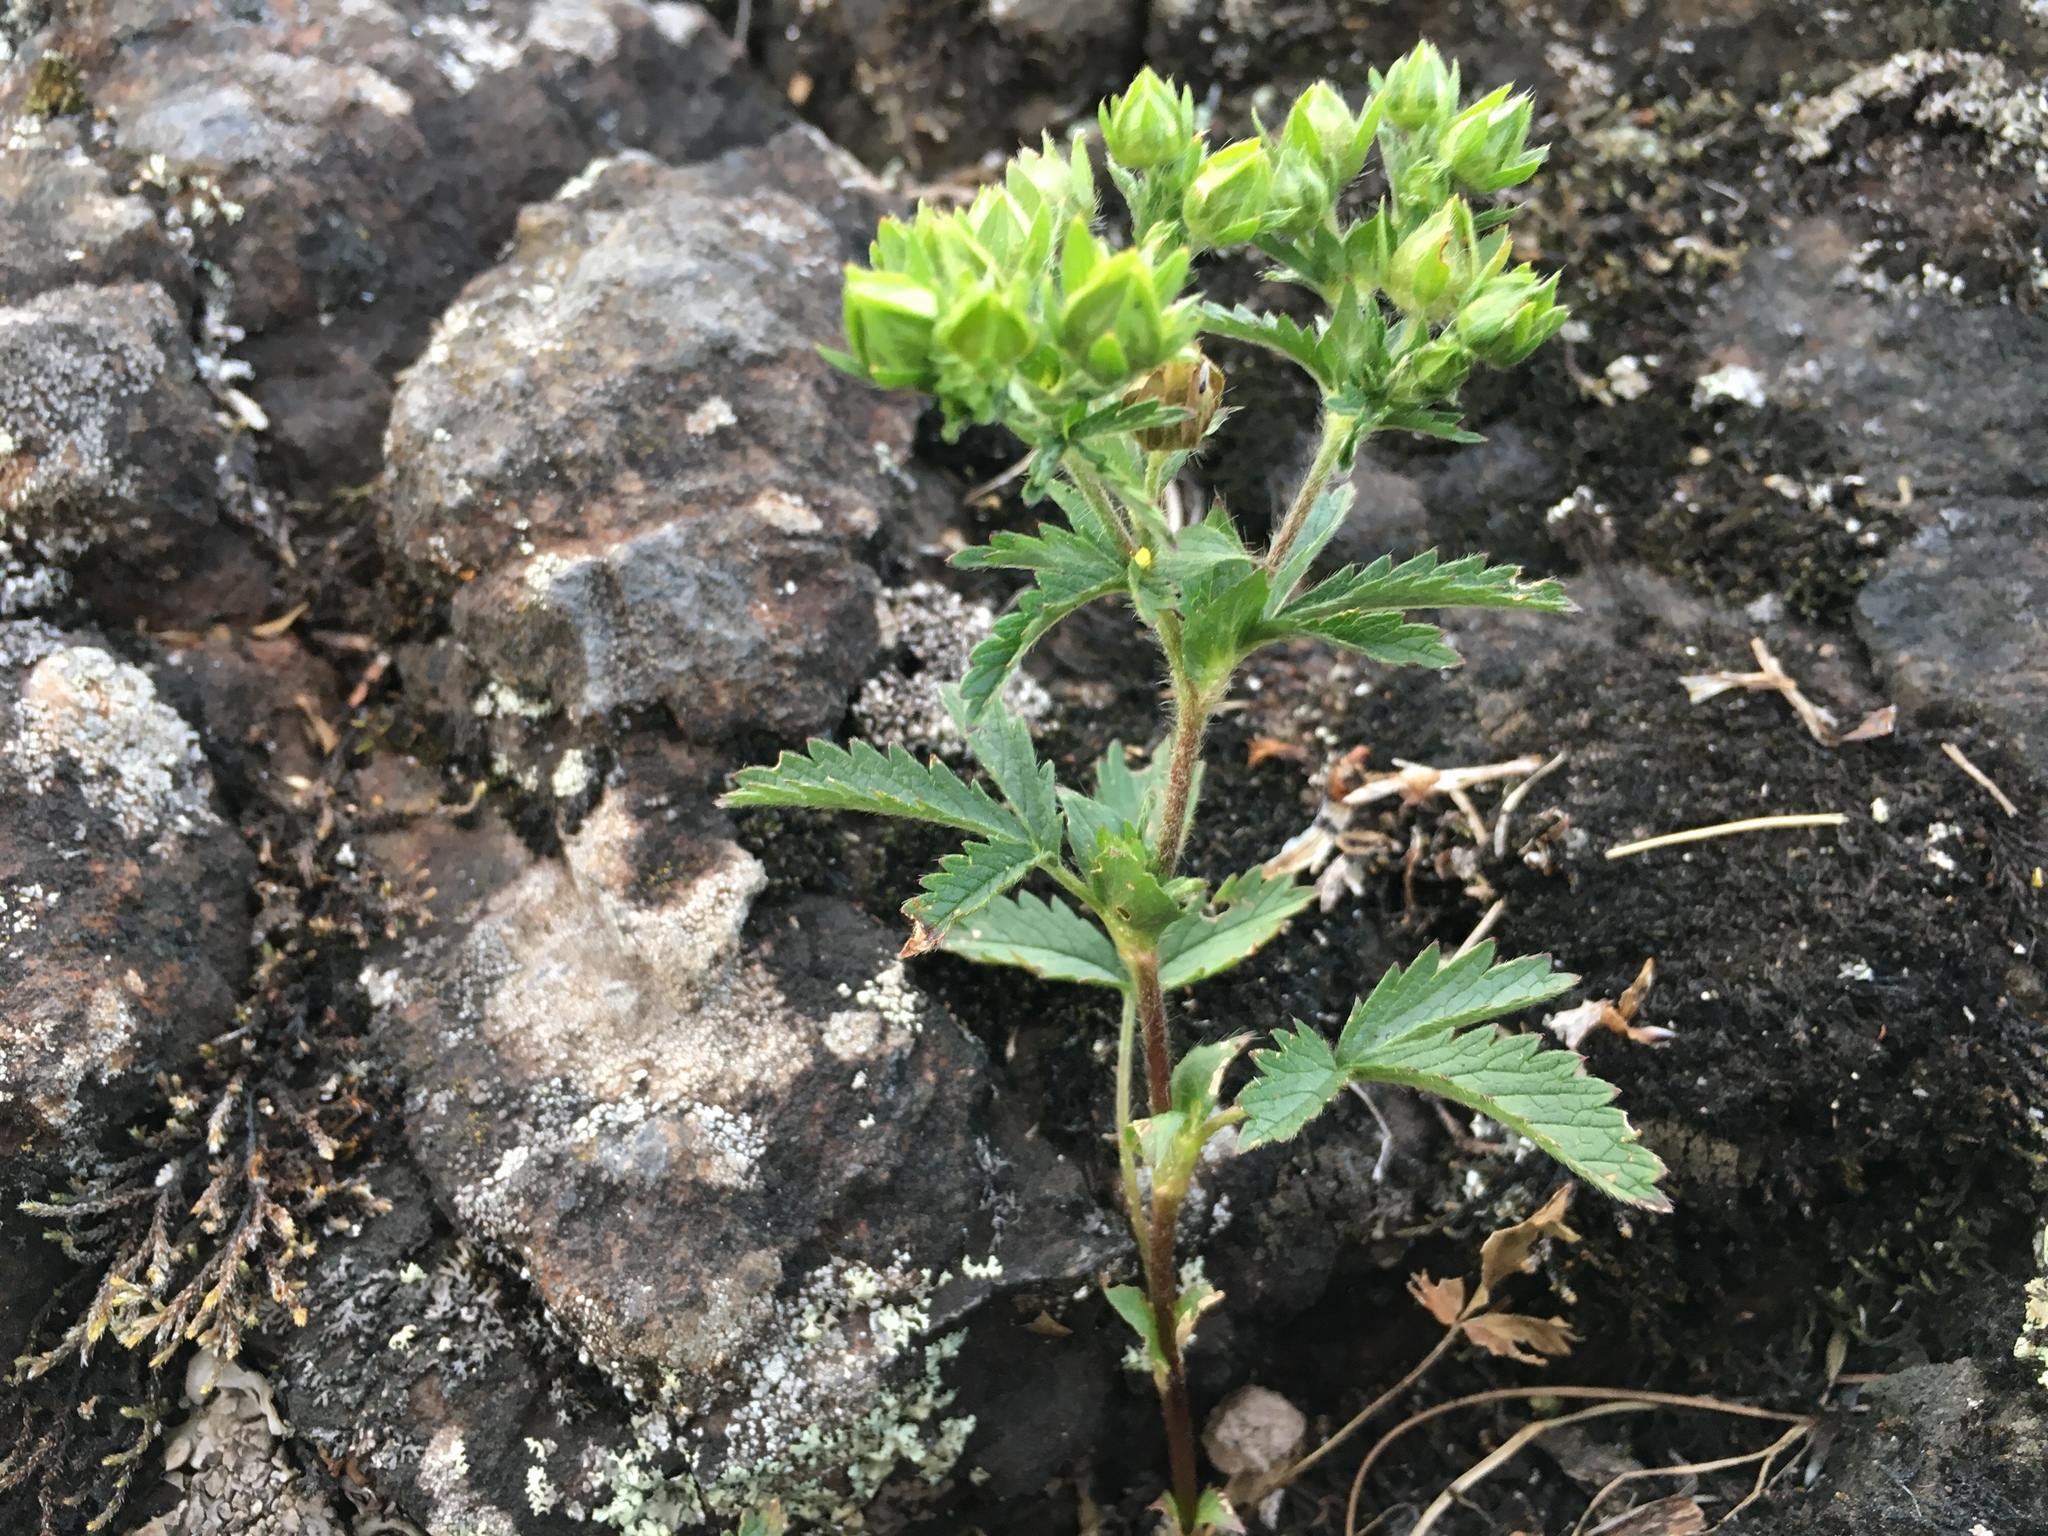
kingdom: Plantae
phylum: Tracheophyta
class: Magnoliopsida
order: Rosales
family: Rosaceae
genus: Potentilla
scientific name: Potentilla norvegica
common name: Ternate-leaved cinquefoil
